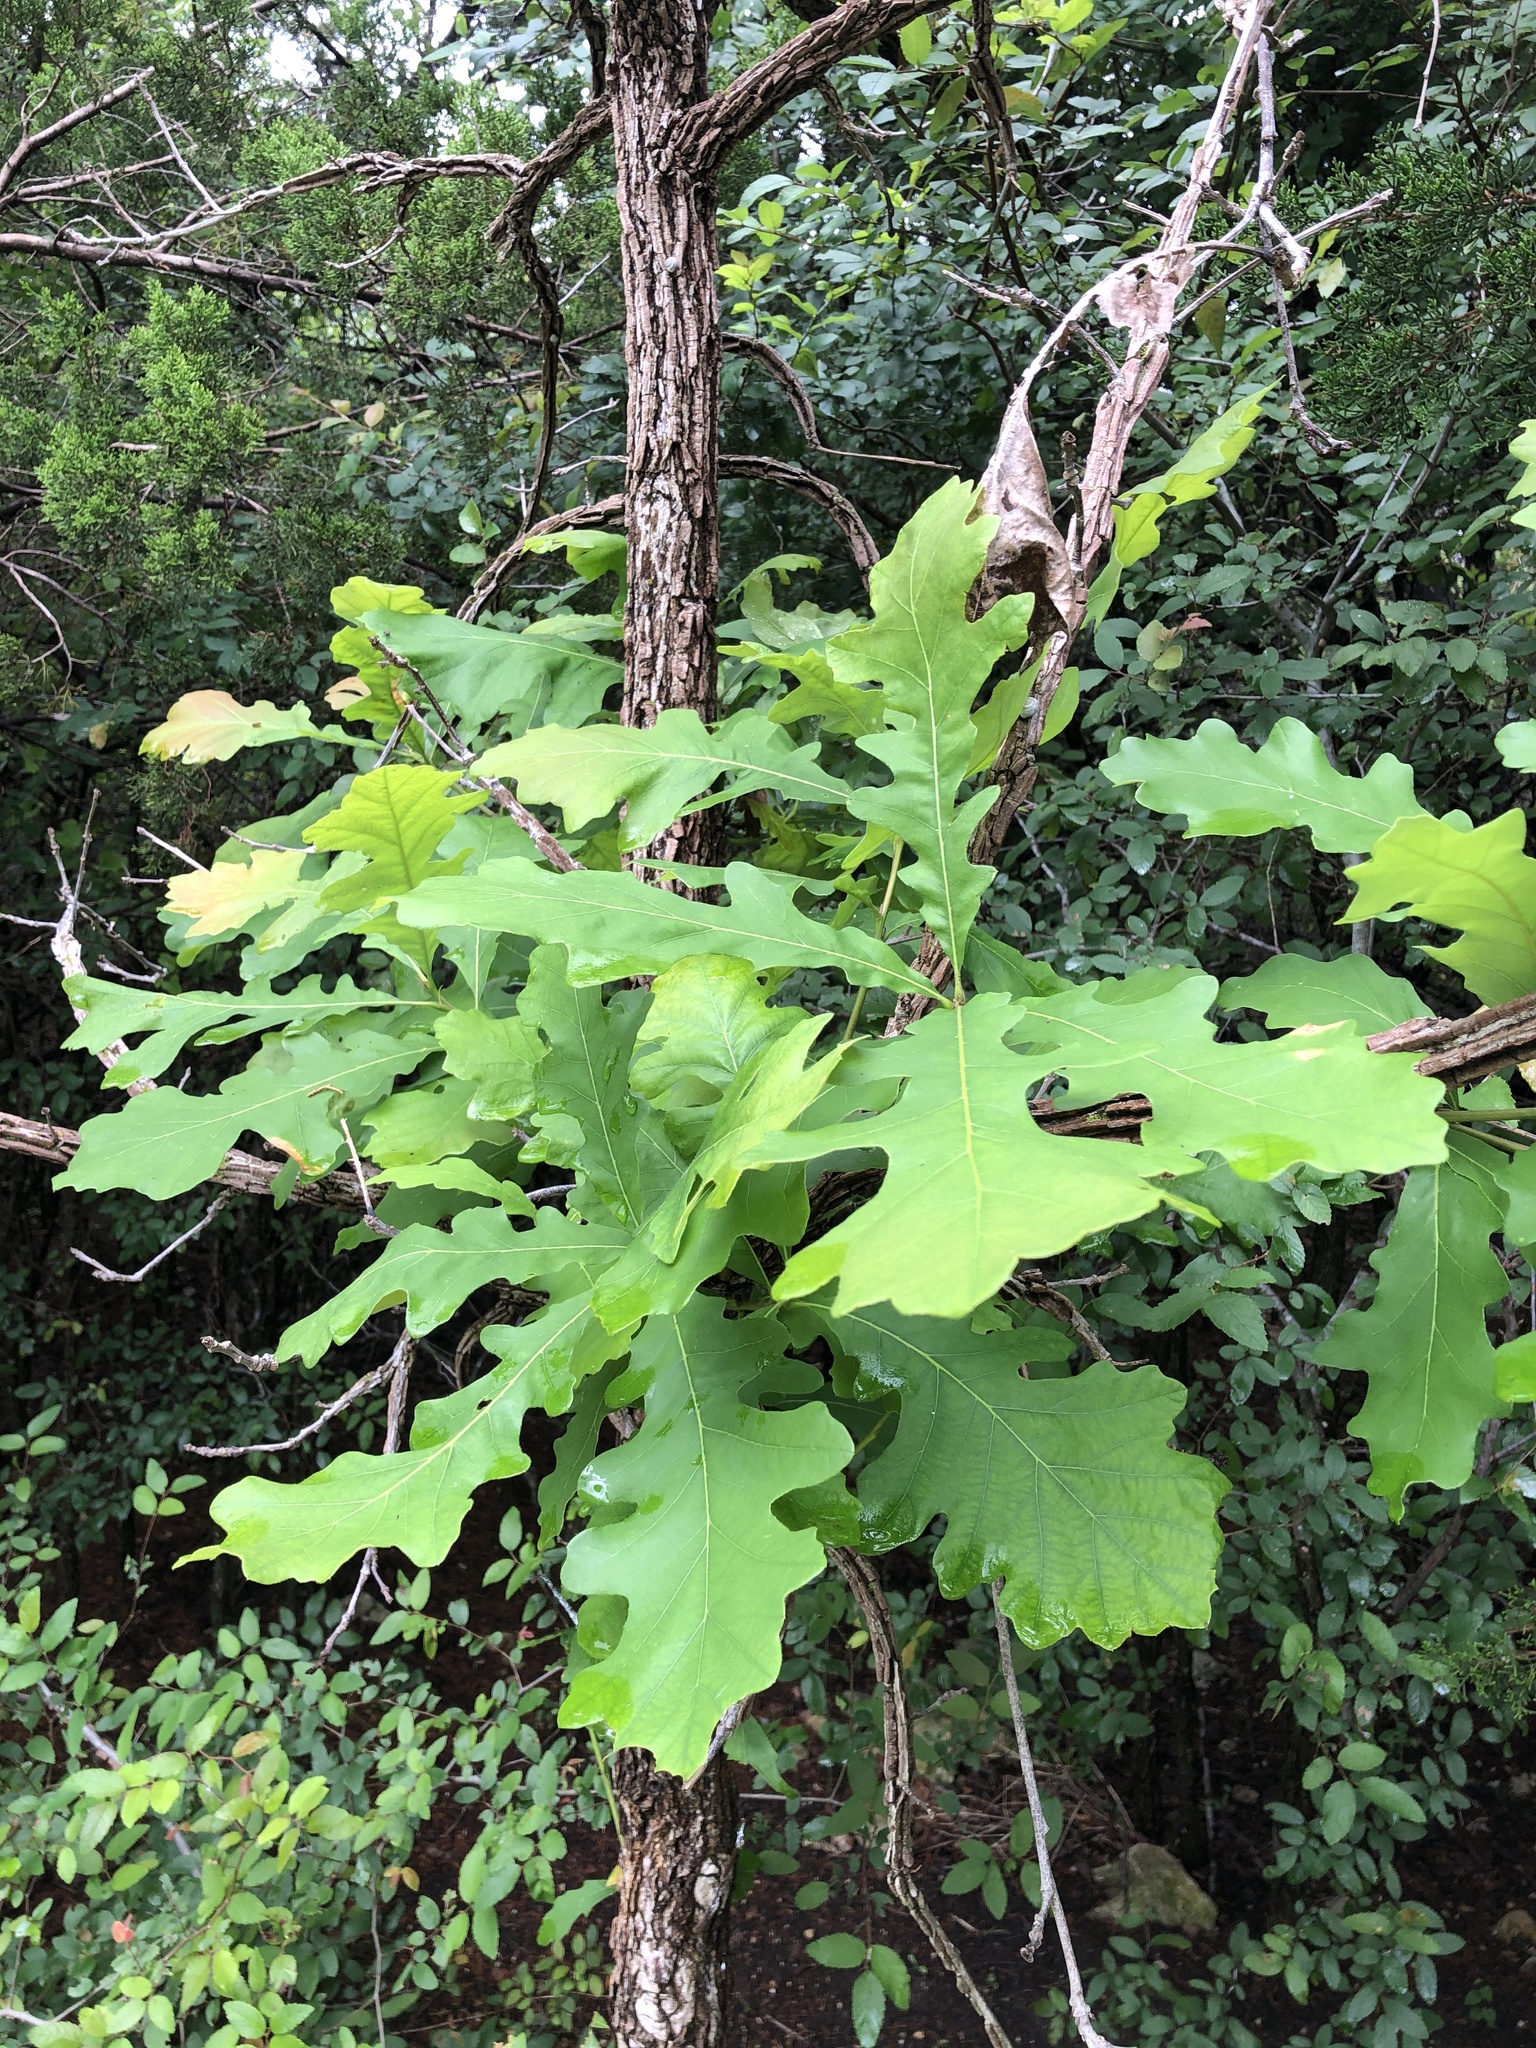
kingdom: Plantae
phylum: Tracheophyta
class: Magnoliopsida
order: Fagales
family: Fagaceae
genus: Quercus
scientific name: Quercus macrocarpa
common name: Bur oak
